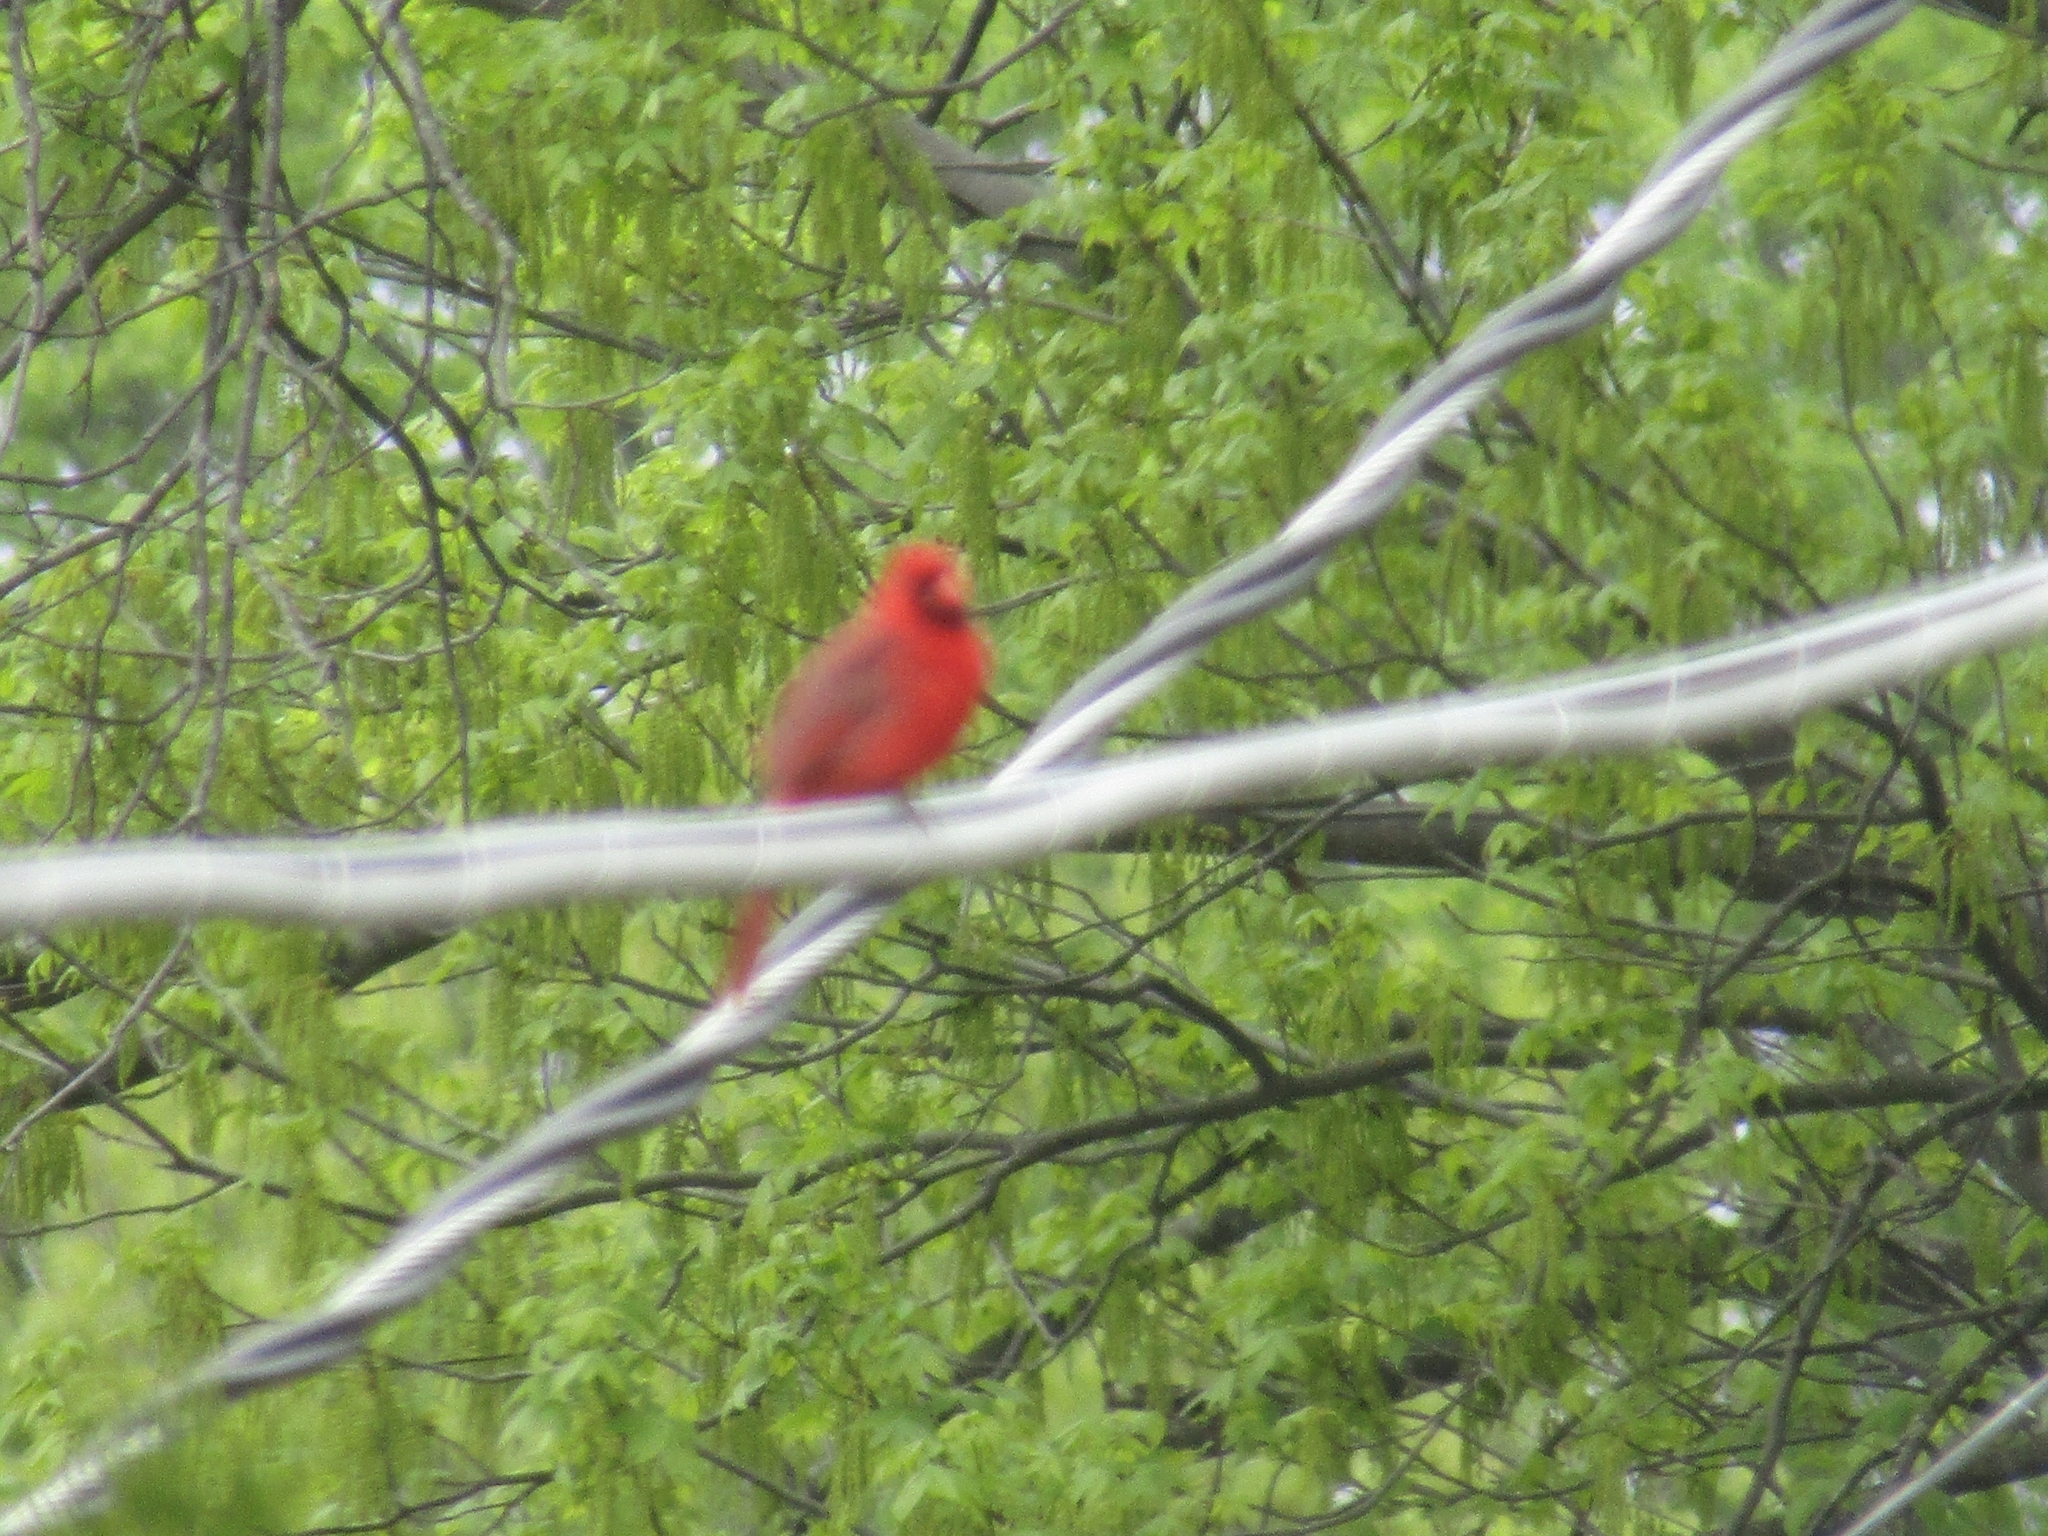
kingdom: Animalia
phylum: Chordata
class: Aves
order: Passeriformes
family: Cardinalidae
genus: Cardinalis
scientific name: Cardinalis cardinalis
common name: Northern cardinal
